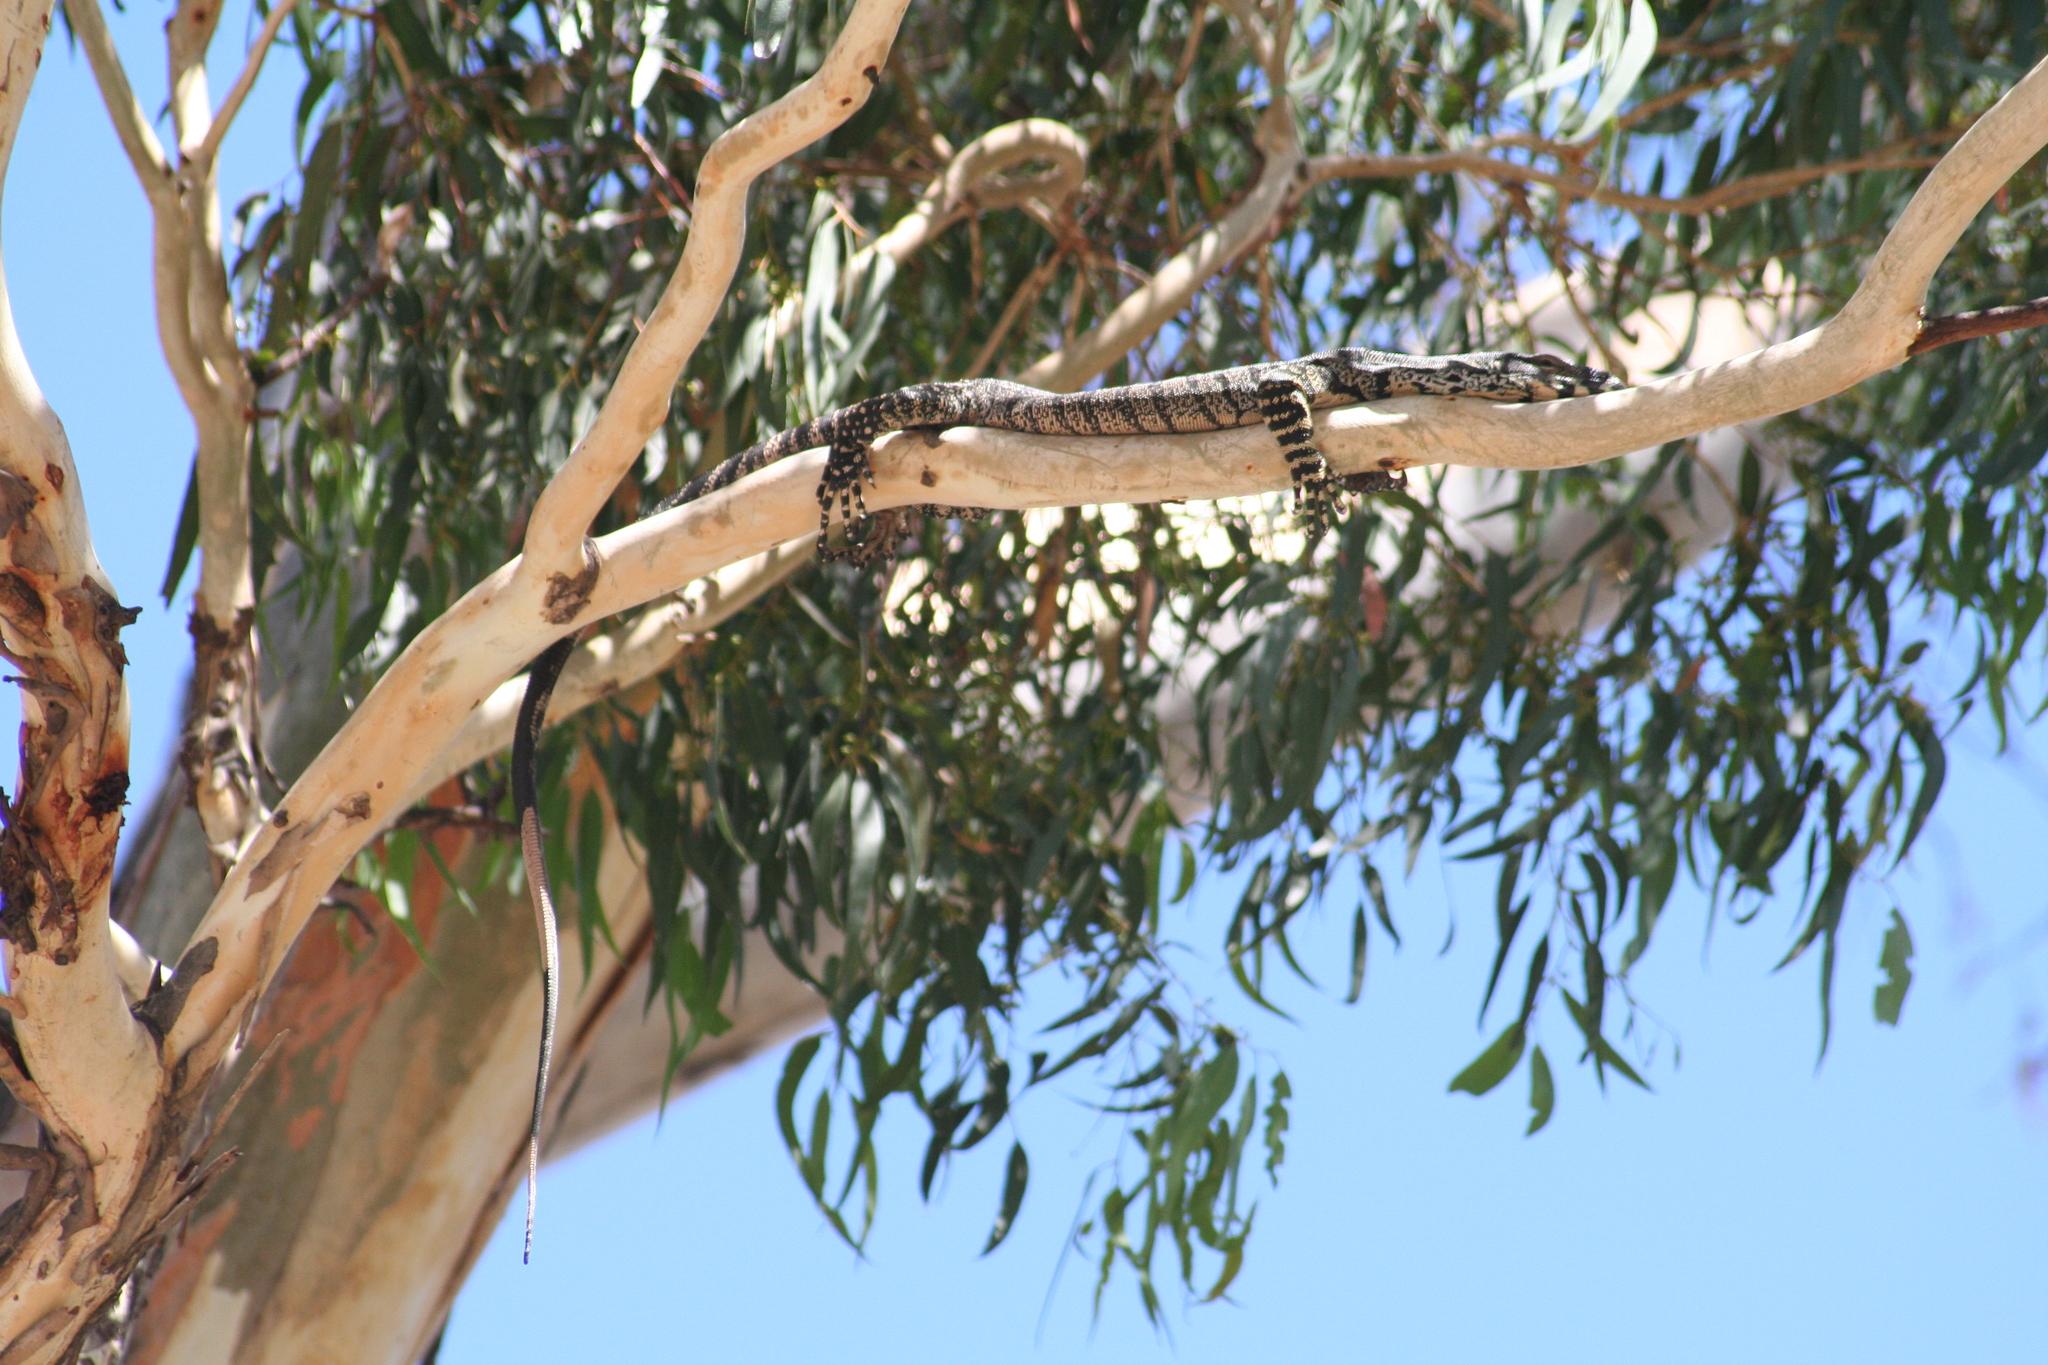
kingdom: Animalia
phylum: Chordata
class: Squamata
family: Varanidae
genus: Varanus
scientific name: Varanus varius
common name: Lace monitor
